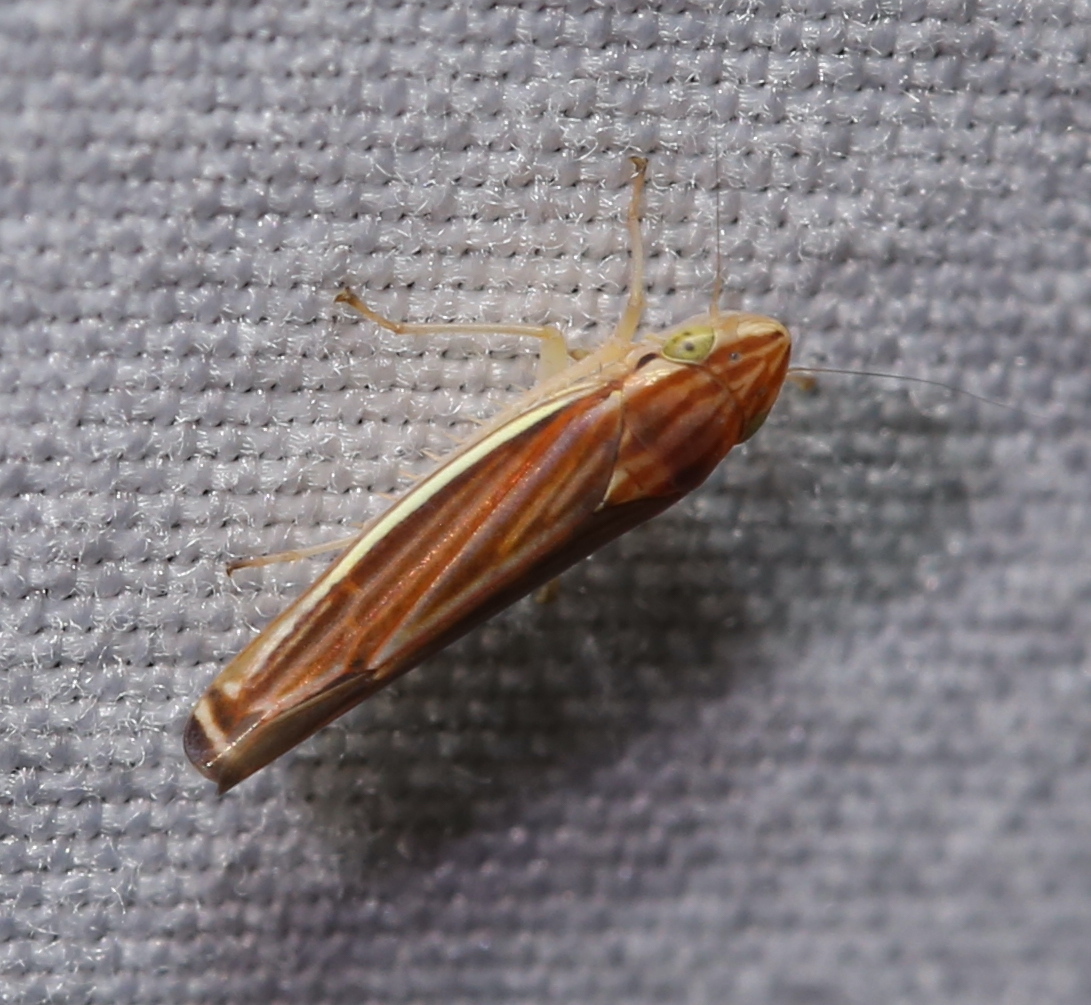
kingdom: Animalia
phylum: Arthropoda
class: Insecta
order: Hemiptera
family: Cicadellidae
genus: Sibovia
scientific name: Sibovia occatoria
